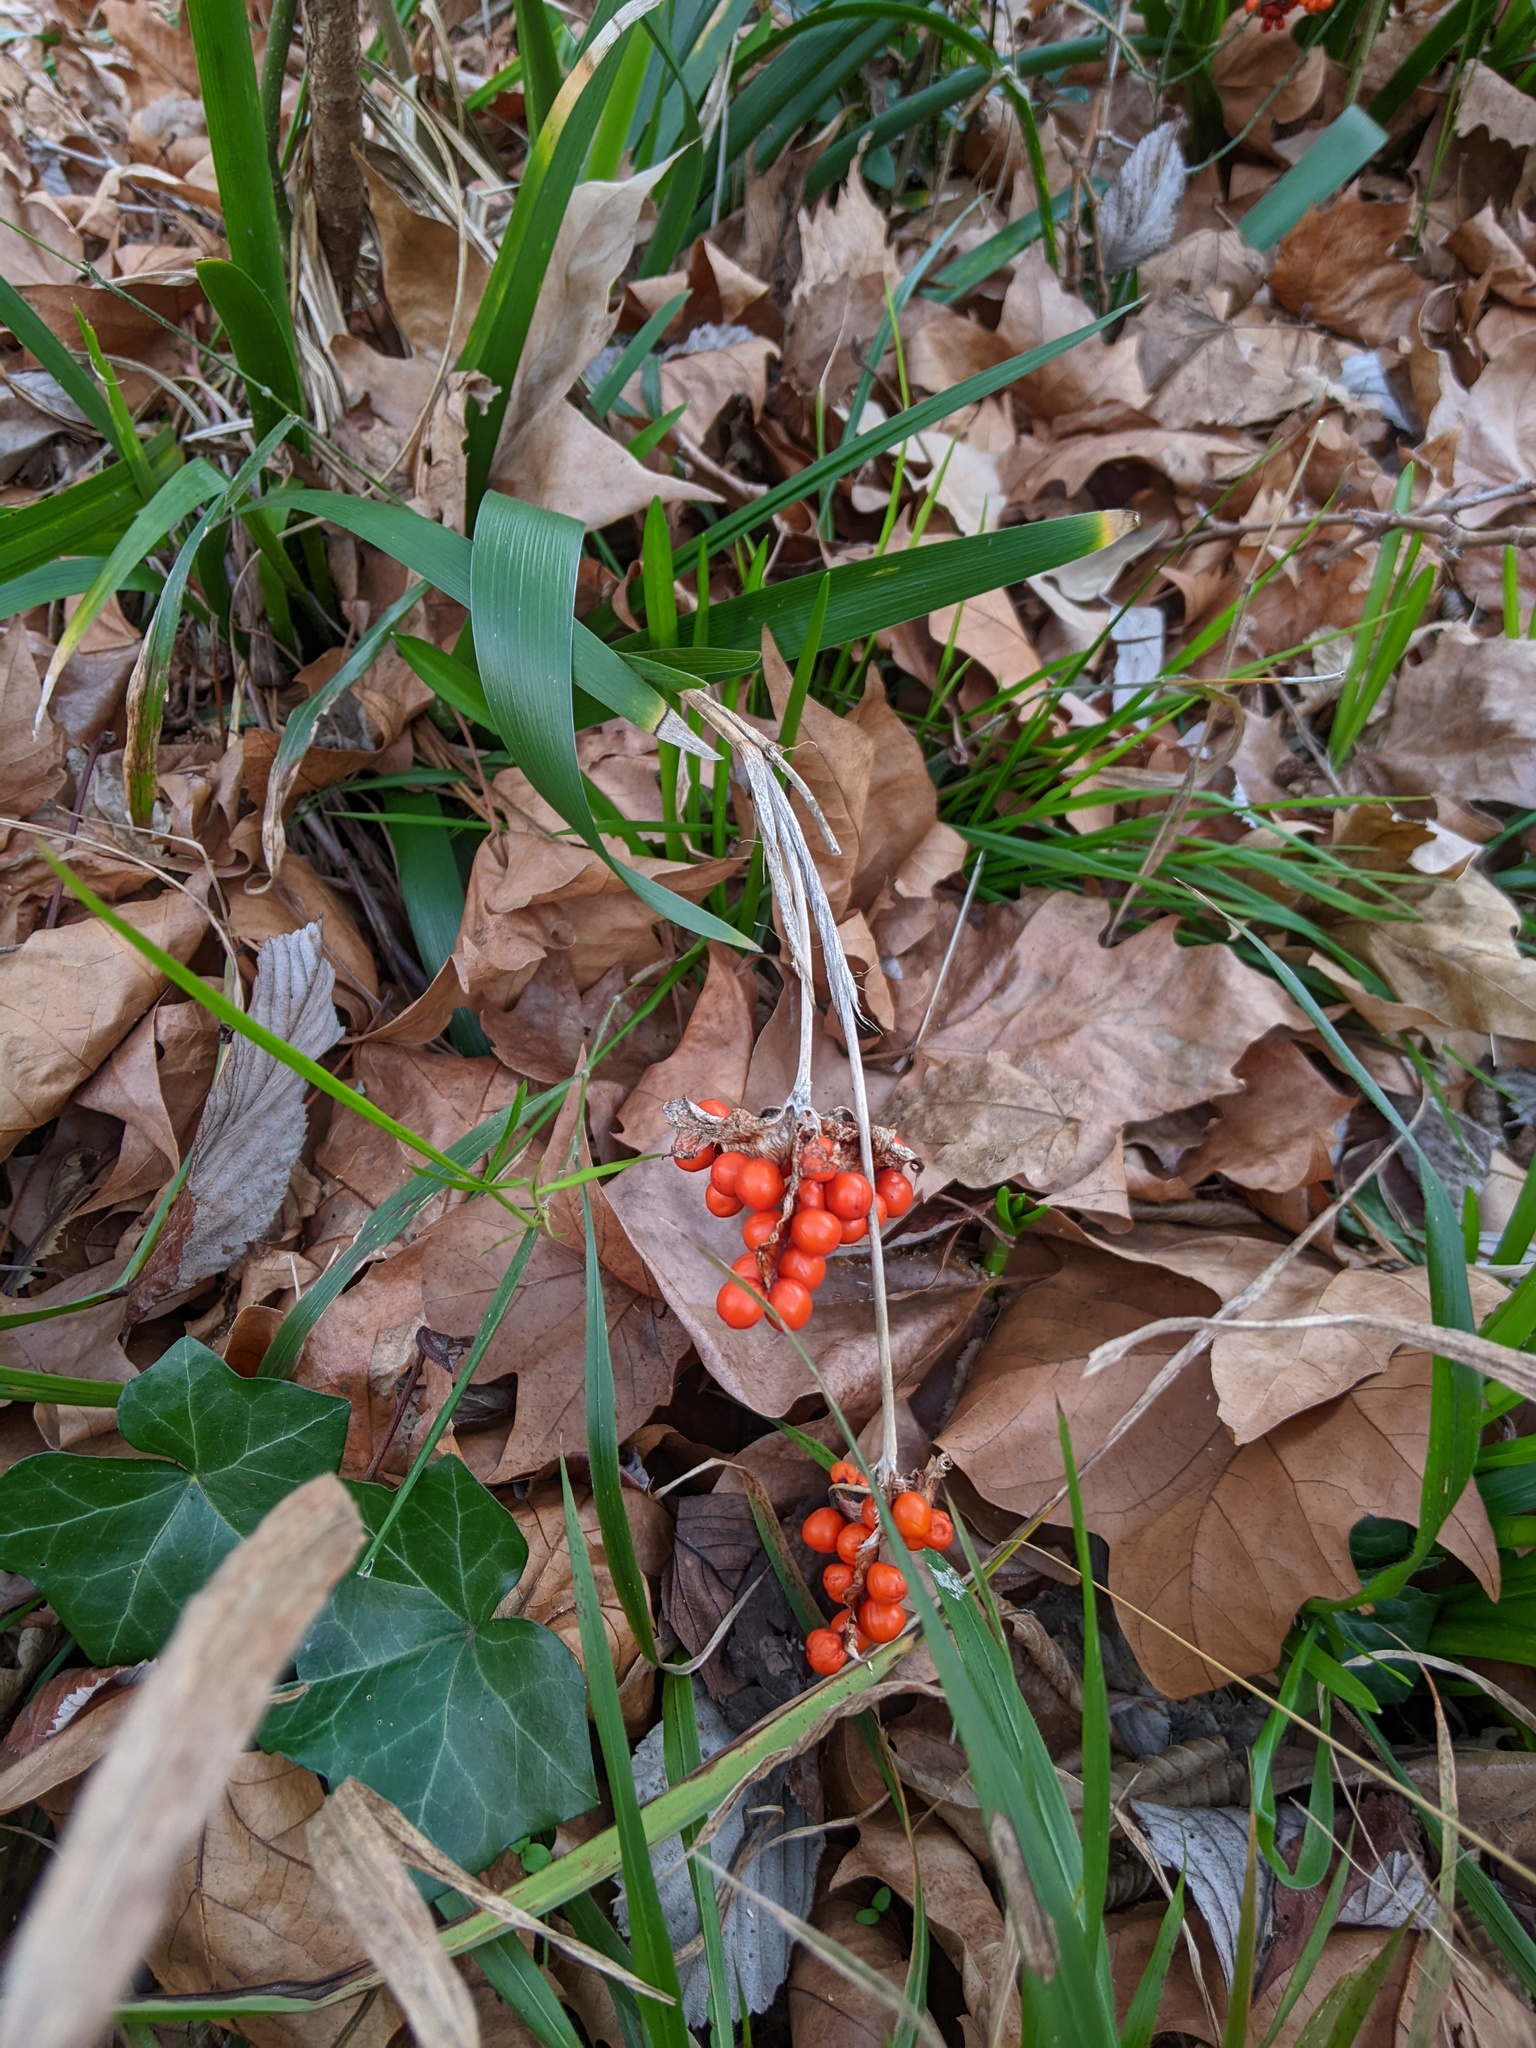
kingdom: Plantae
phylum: Tracheophyta
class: Liliopsida
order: Asparagales
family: Iridaceae
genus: Iris
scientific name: Iris foetidissima
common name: Stinking iris
